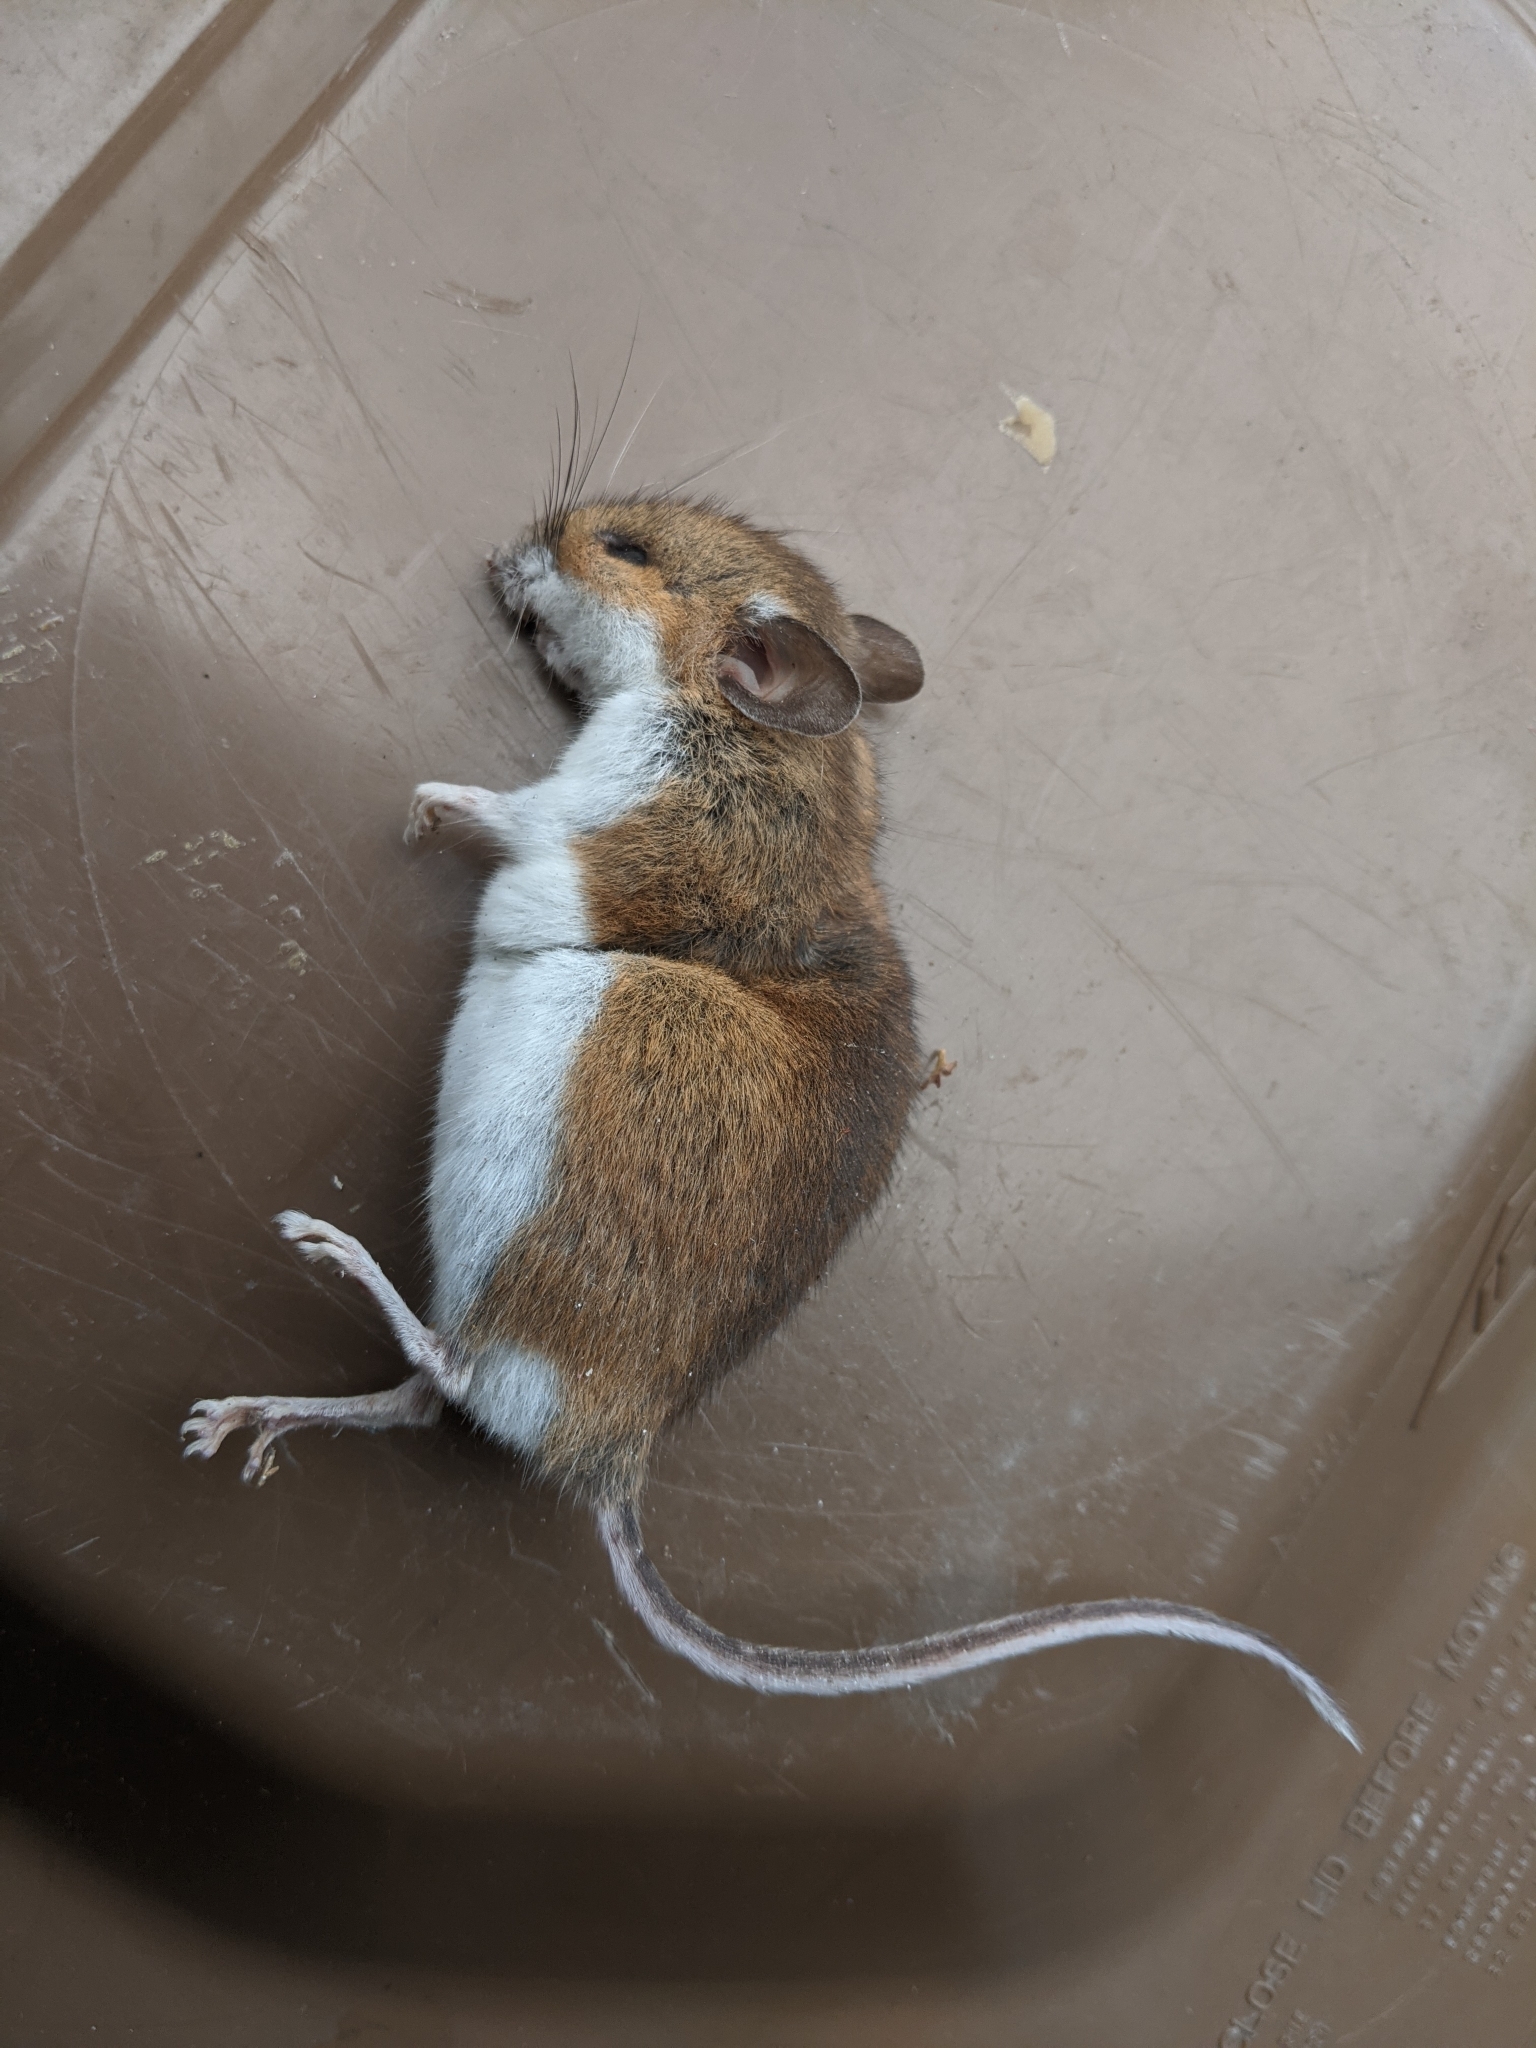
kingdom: Animalia
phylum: Chordata
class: Mammalia
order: Rodentia
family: Cricetidae
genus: Peromyscus
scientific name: Peromyscus
